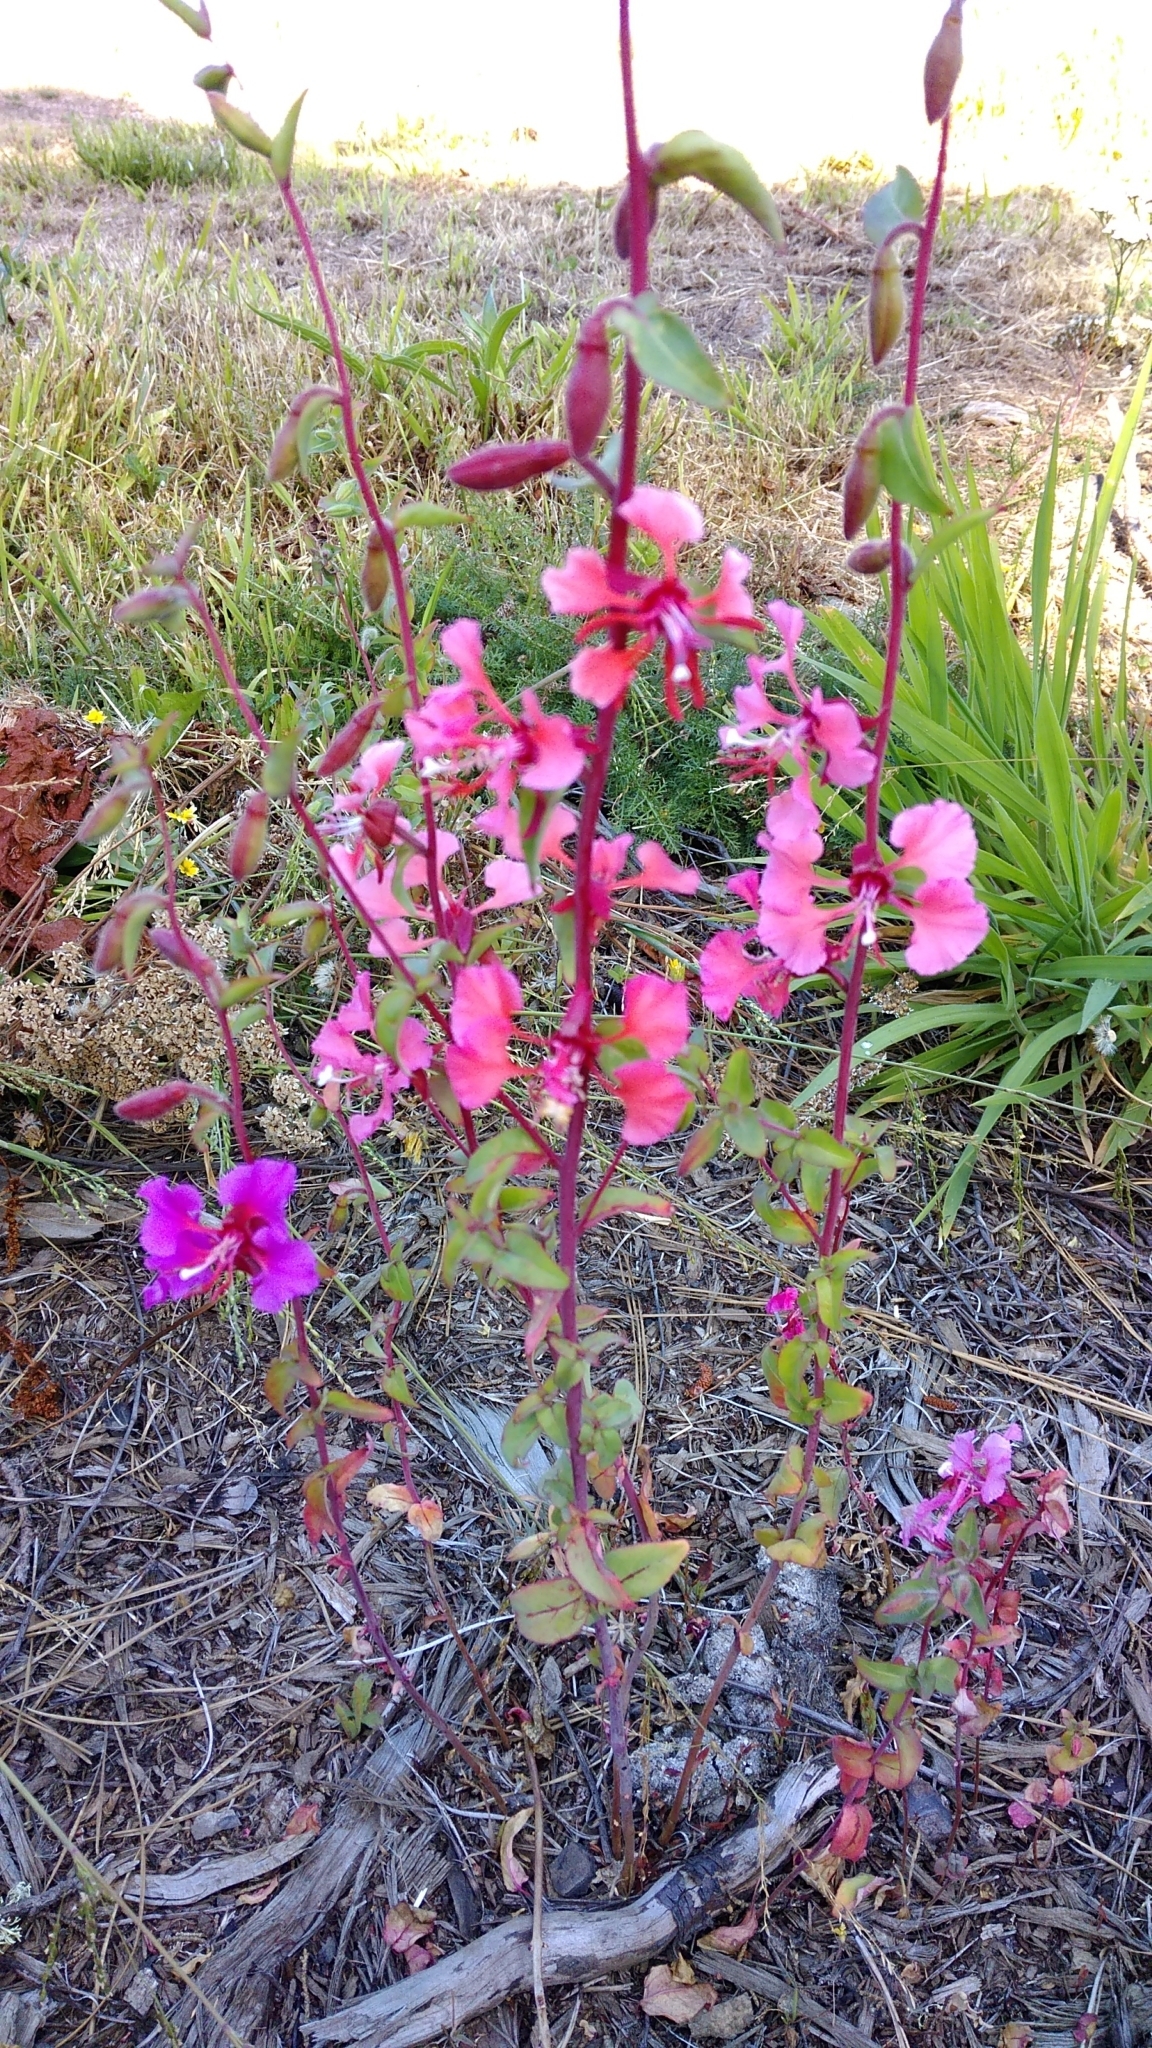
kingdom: Plantae
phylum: Tracheophyta
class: Magnoliopsida
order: Myrtales
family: Onagraceae
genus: Clarkia
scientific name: Clarkia unguiculata
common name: Clarkia
